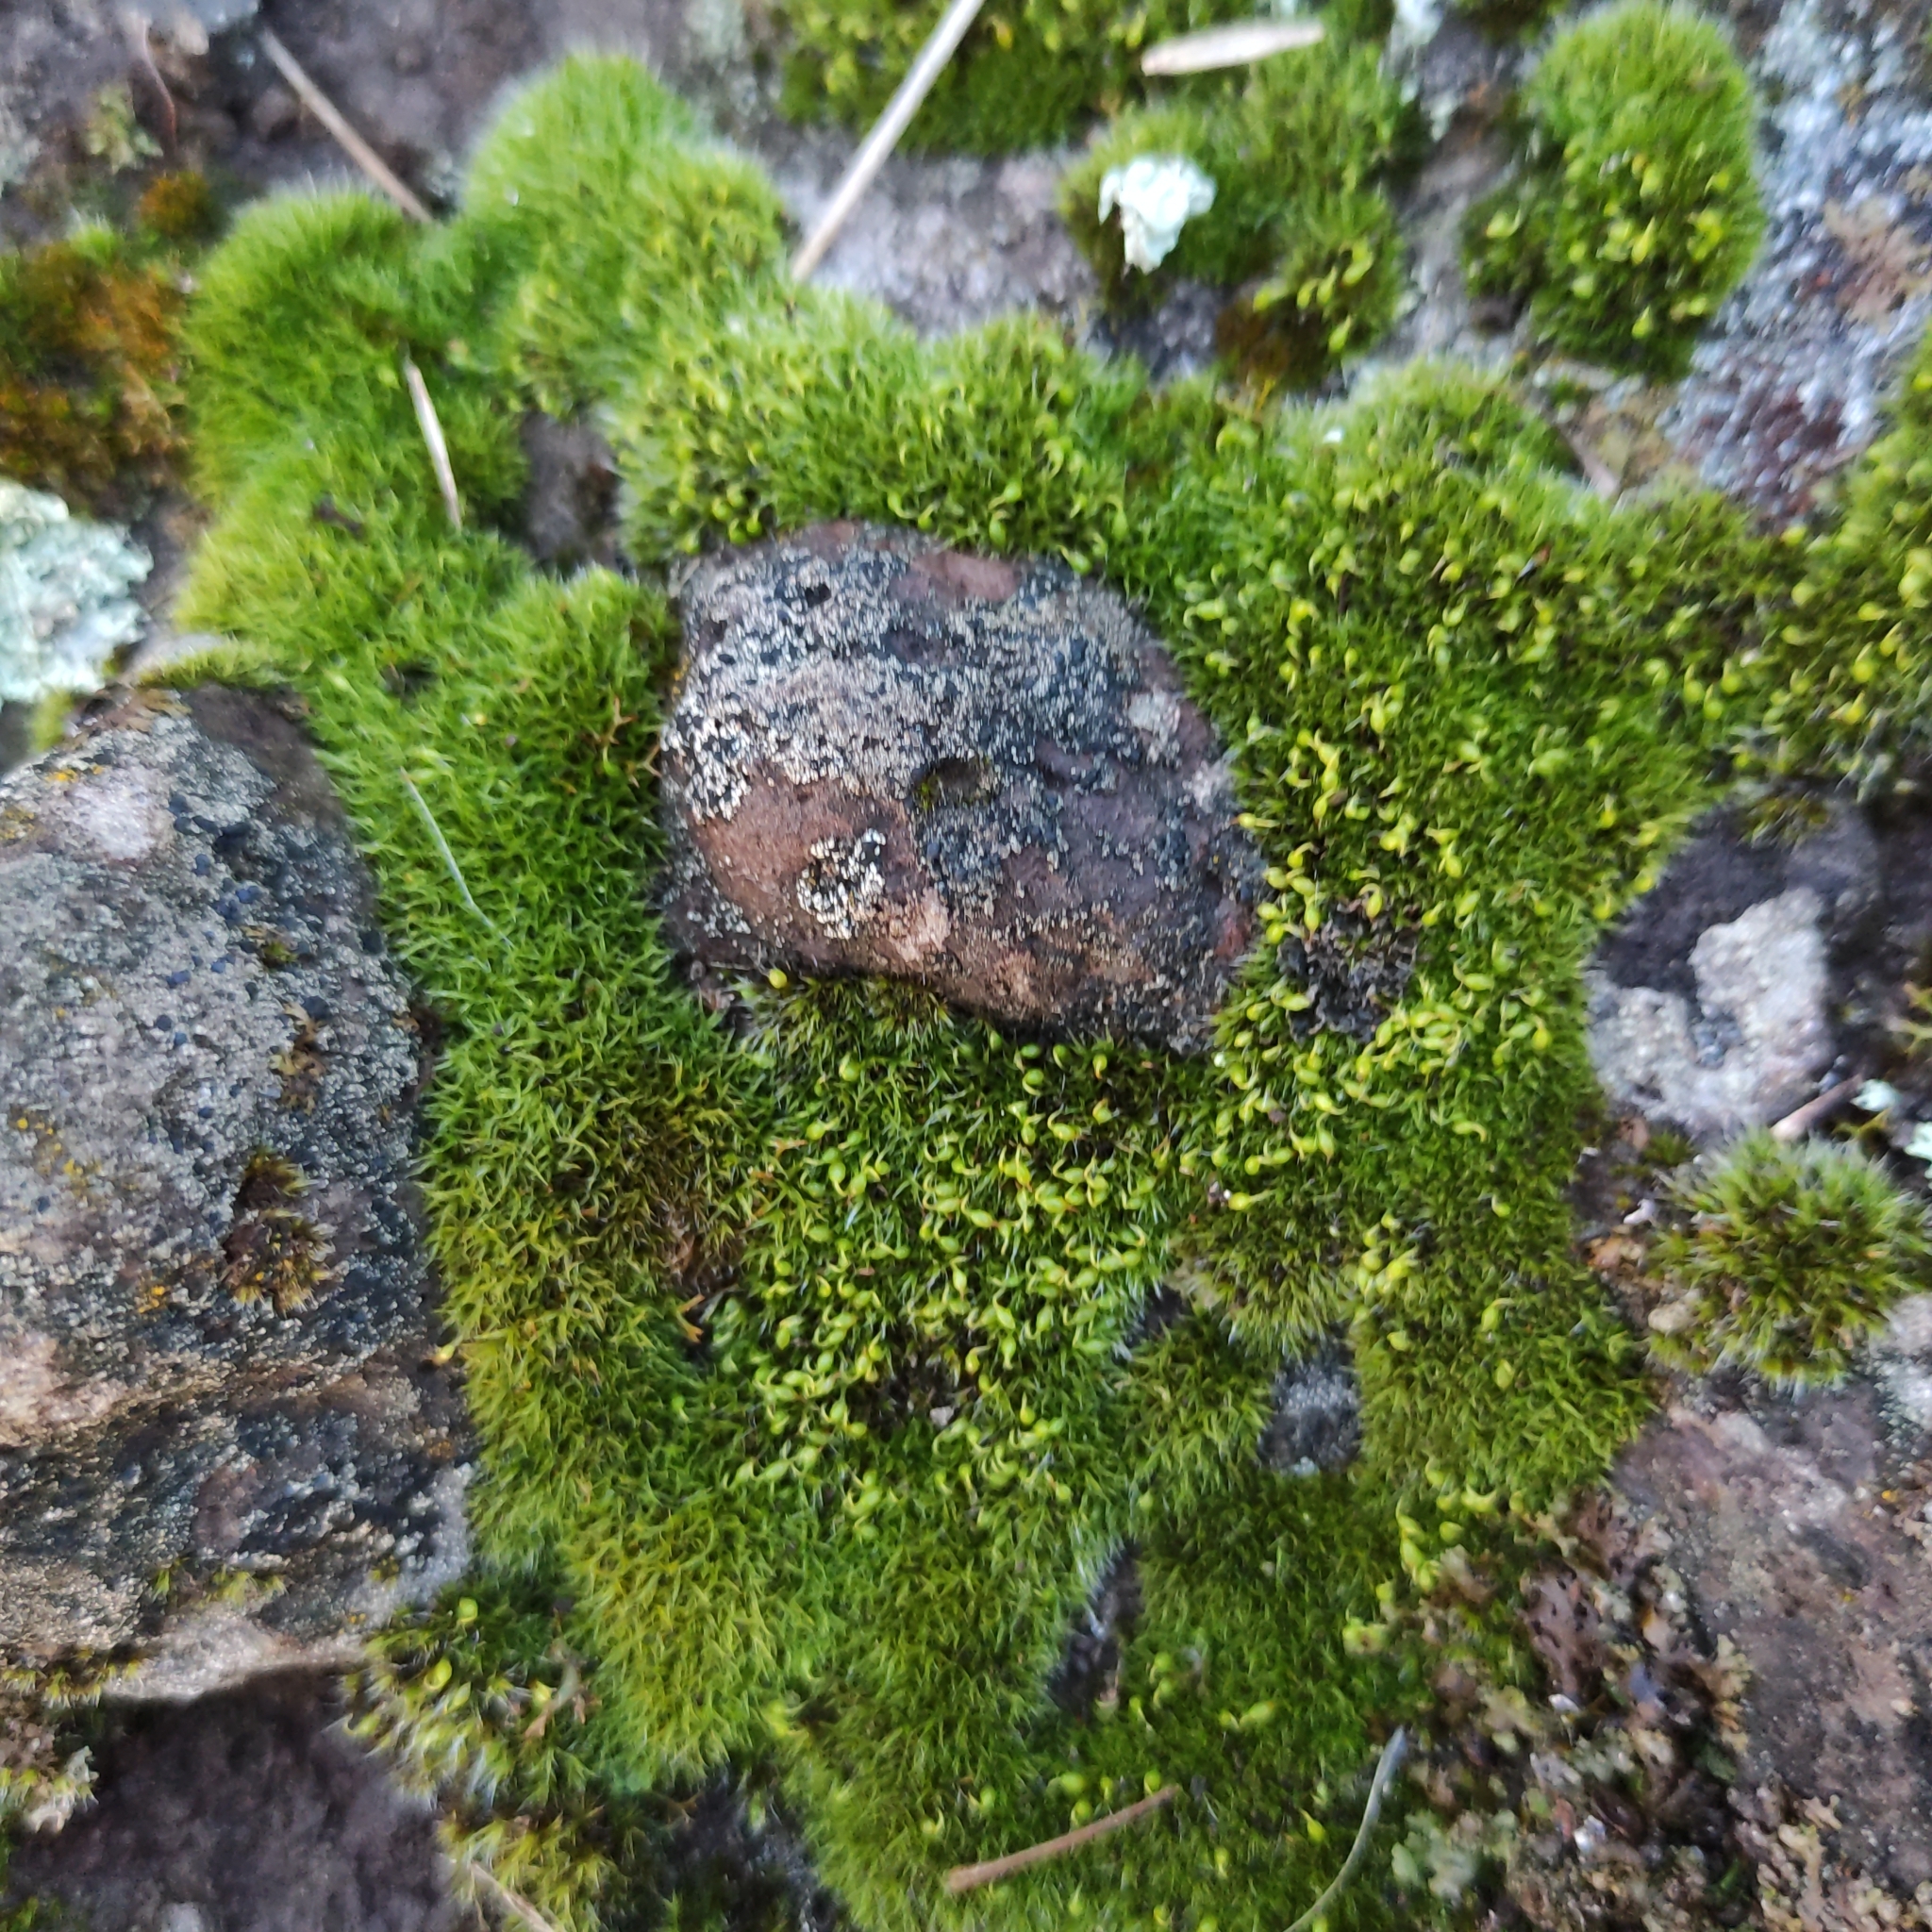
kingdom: Plantae
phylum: Bryophyta
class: Bryopsida
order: Grimmiales
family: Grimmiaceae
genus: Grimmia
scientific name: Grimmia pulvinata
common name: Grey-cushioned grimmia
